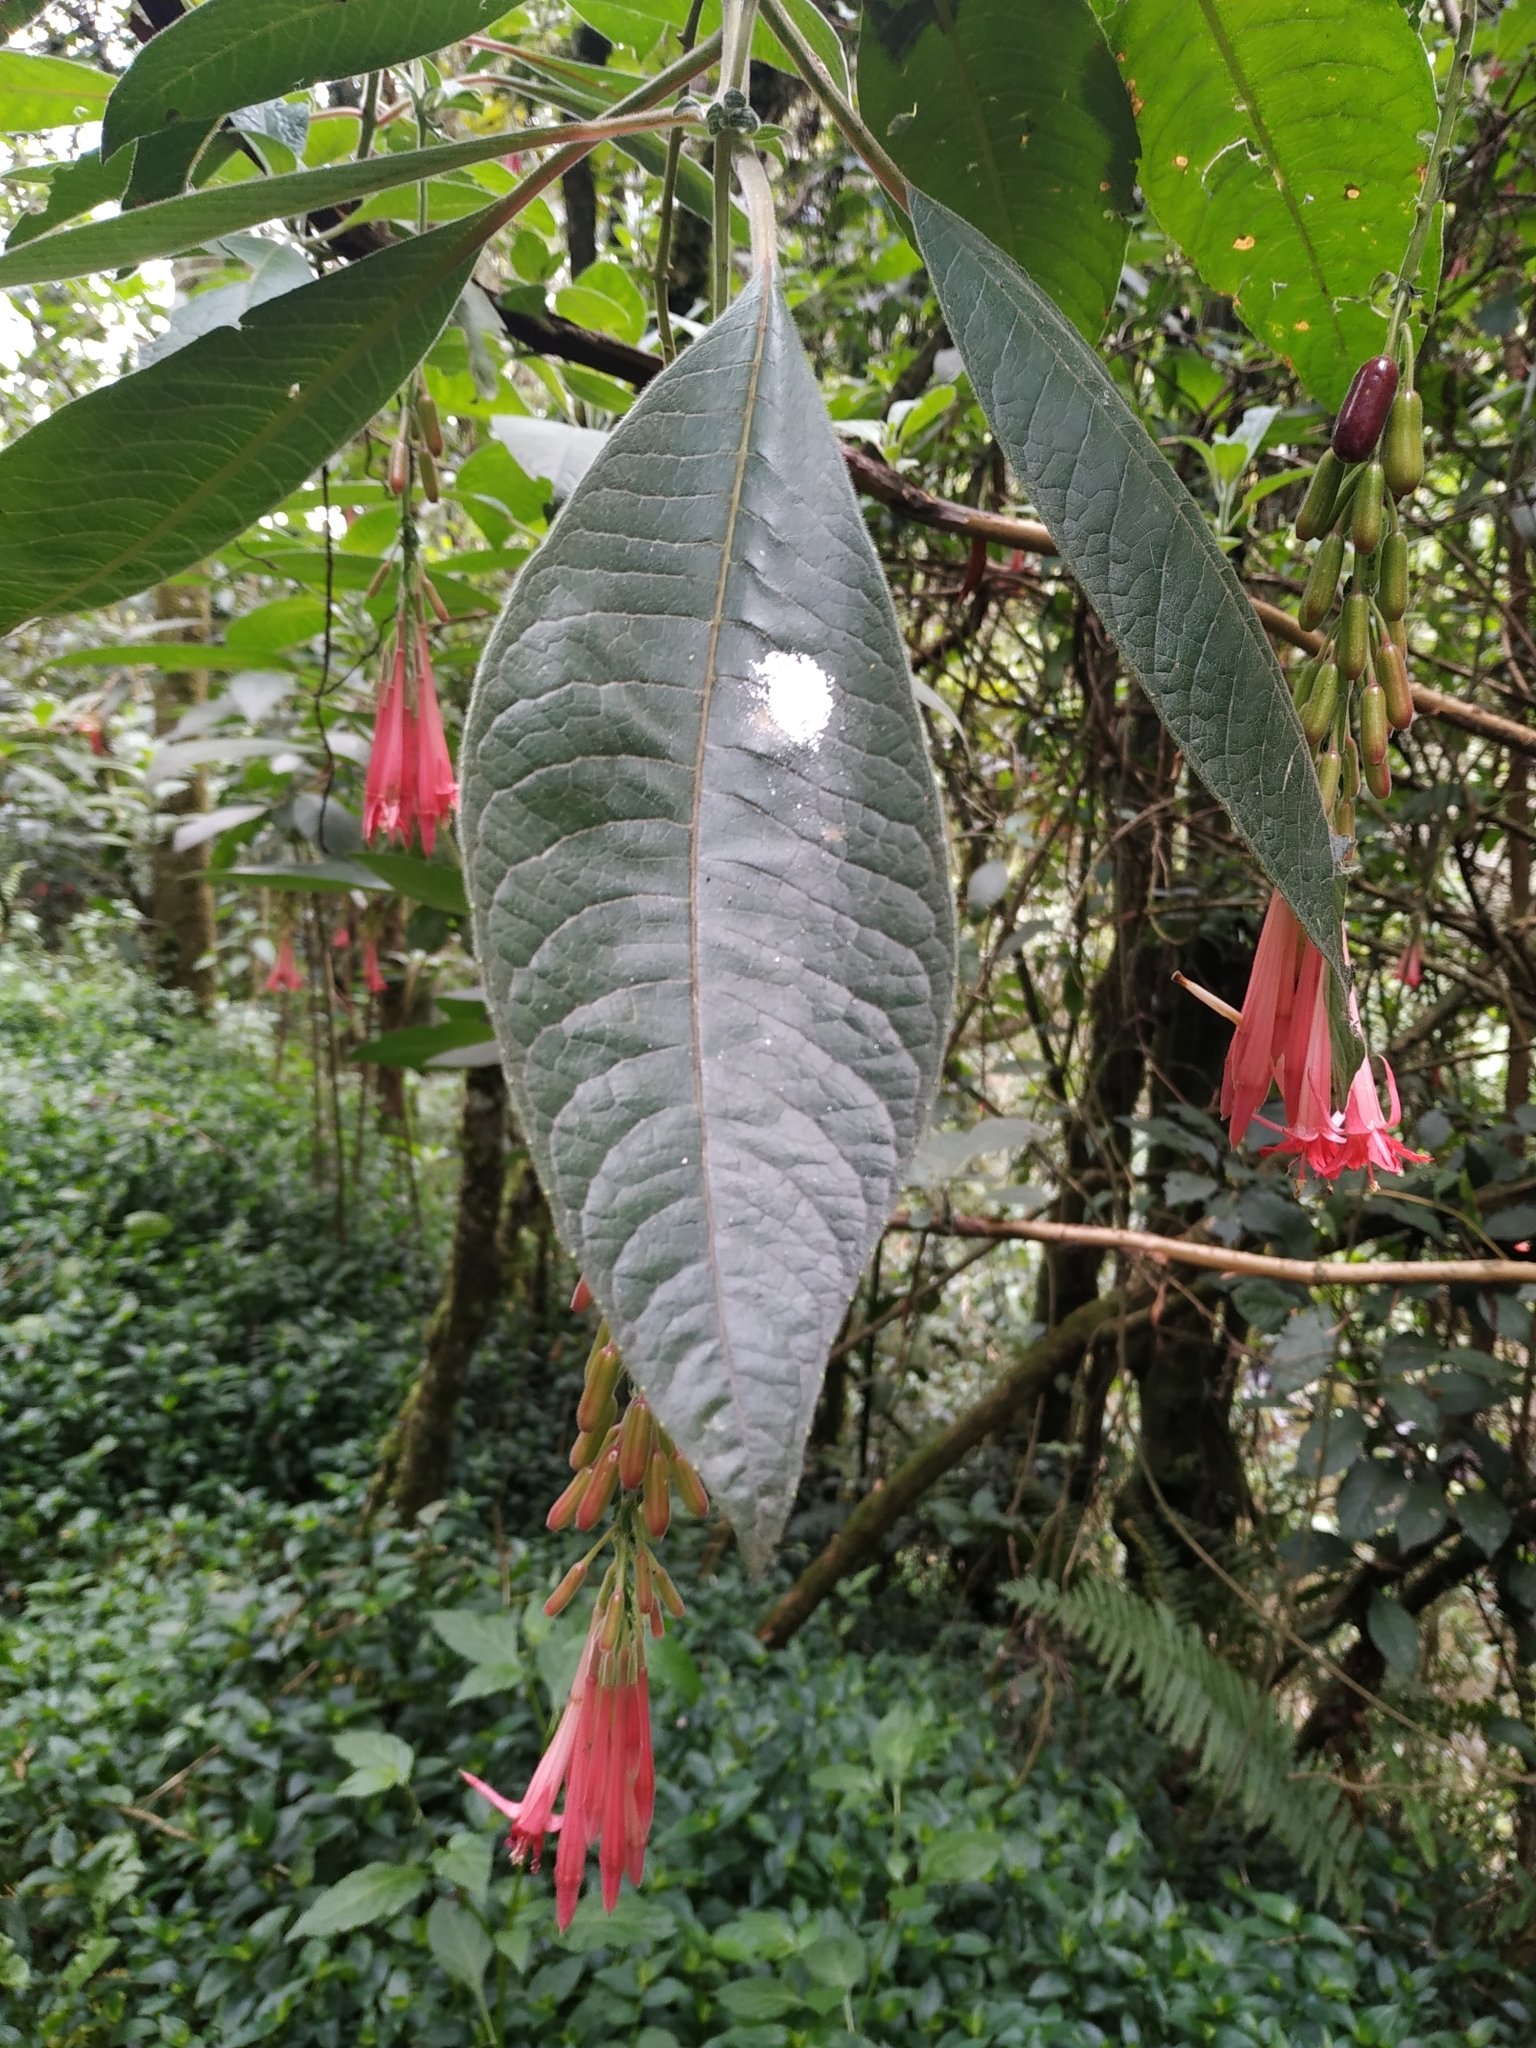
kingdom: Plantae
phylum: Tracheophyta
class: Magnoliopsida
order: Myrtales
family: Onagraceae
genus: Fuchsia
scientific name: Fuchsia boliviana
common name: Bolivian fuchsia
